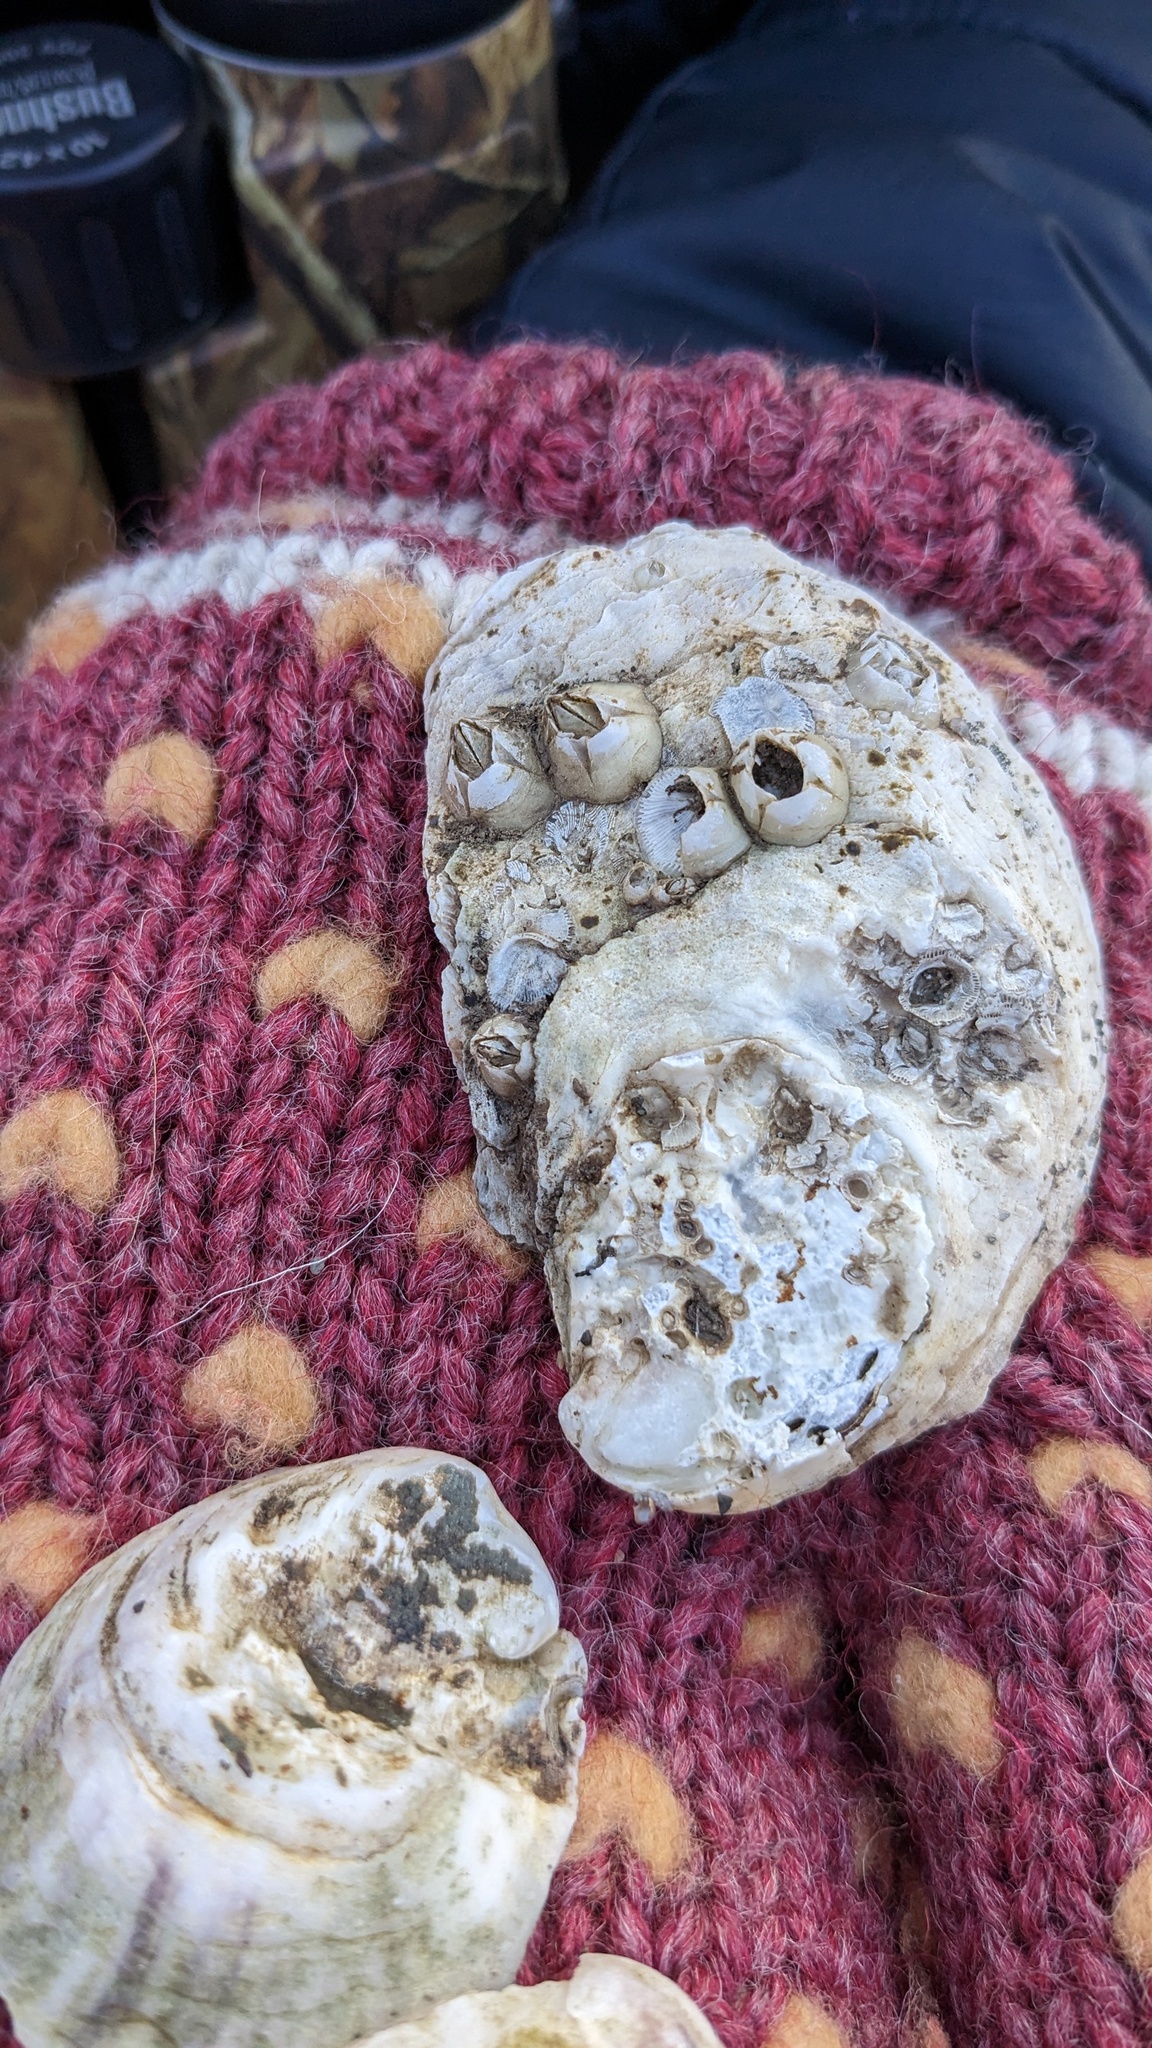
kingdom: Animalia
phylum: Arthropoda
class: Maxillopoda
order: Sessilia
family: Archaeobalanidae
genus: Semibalanus
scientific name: Semibalanus balanoides
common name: Acorn barnacle
